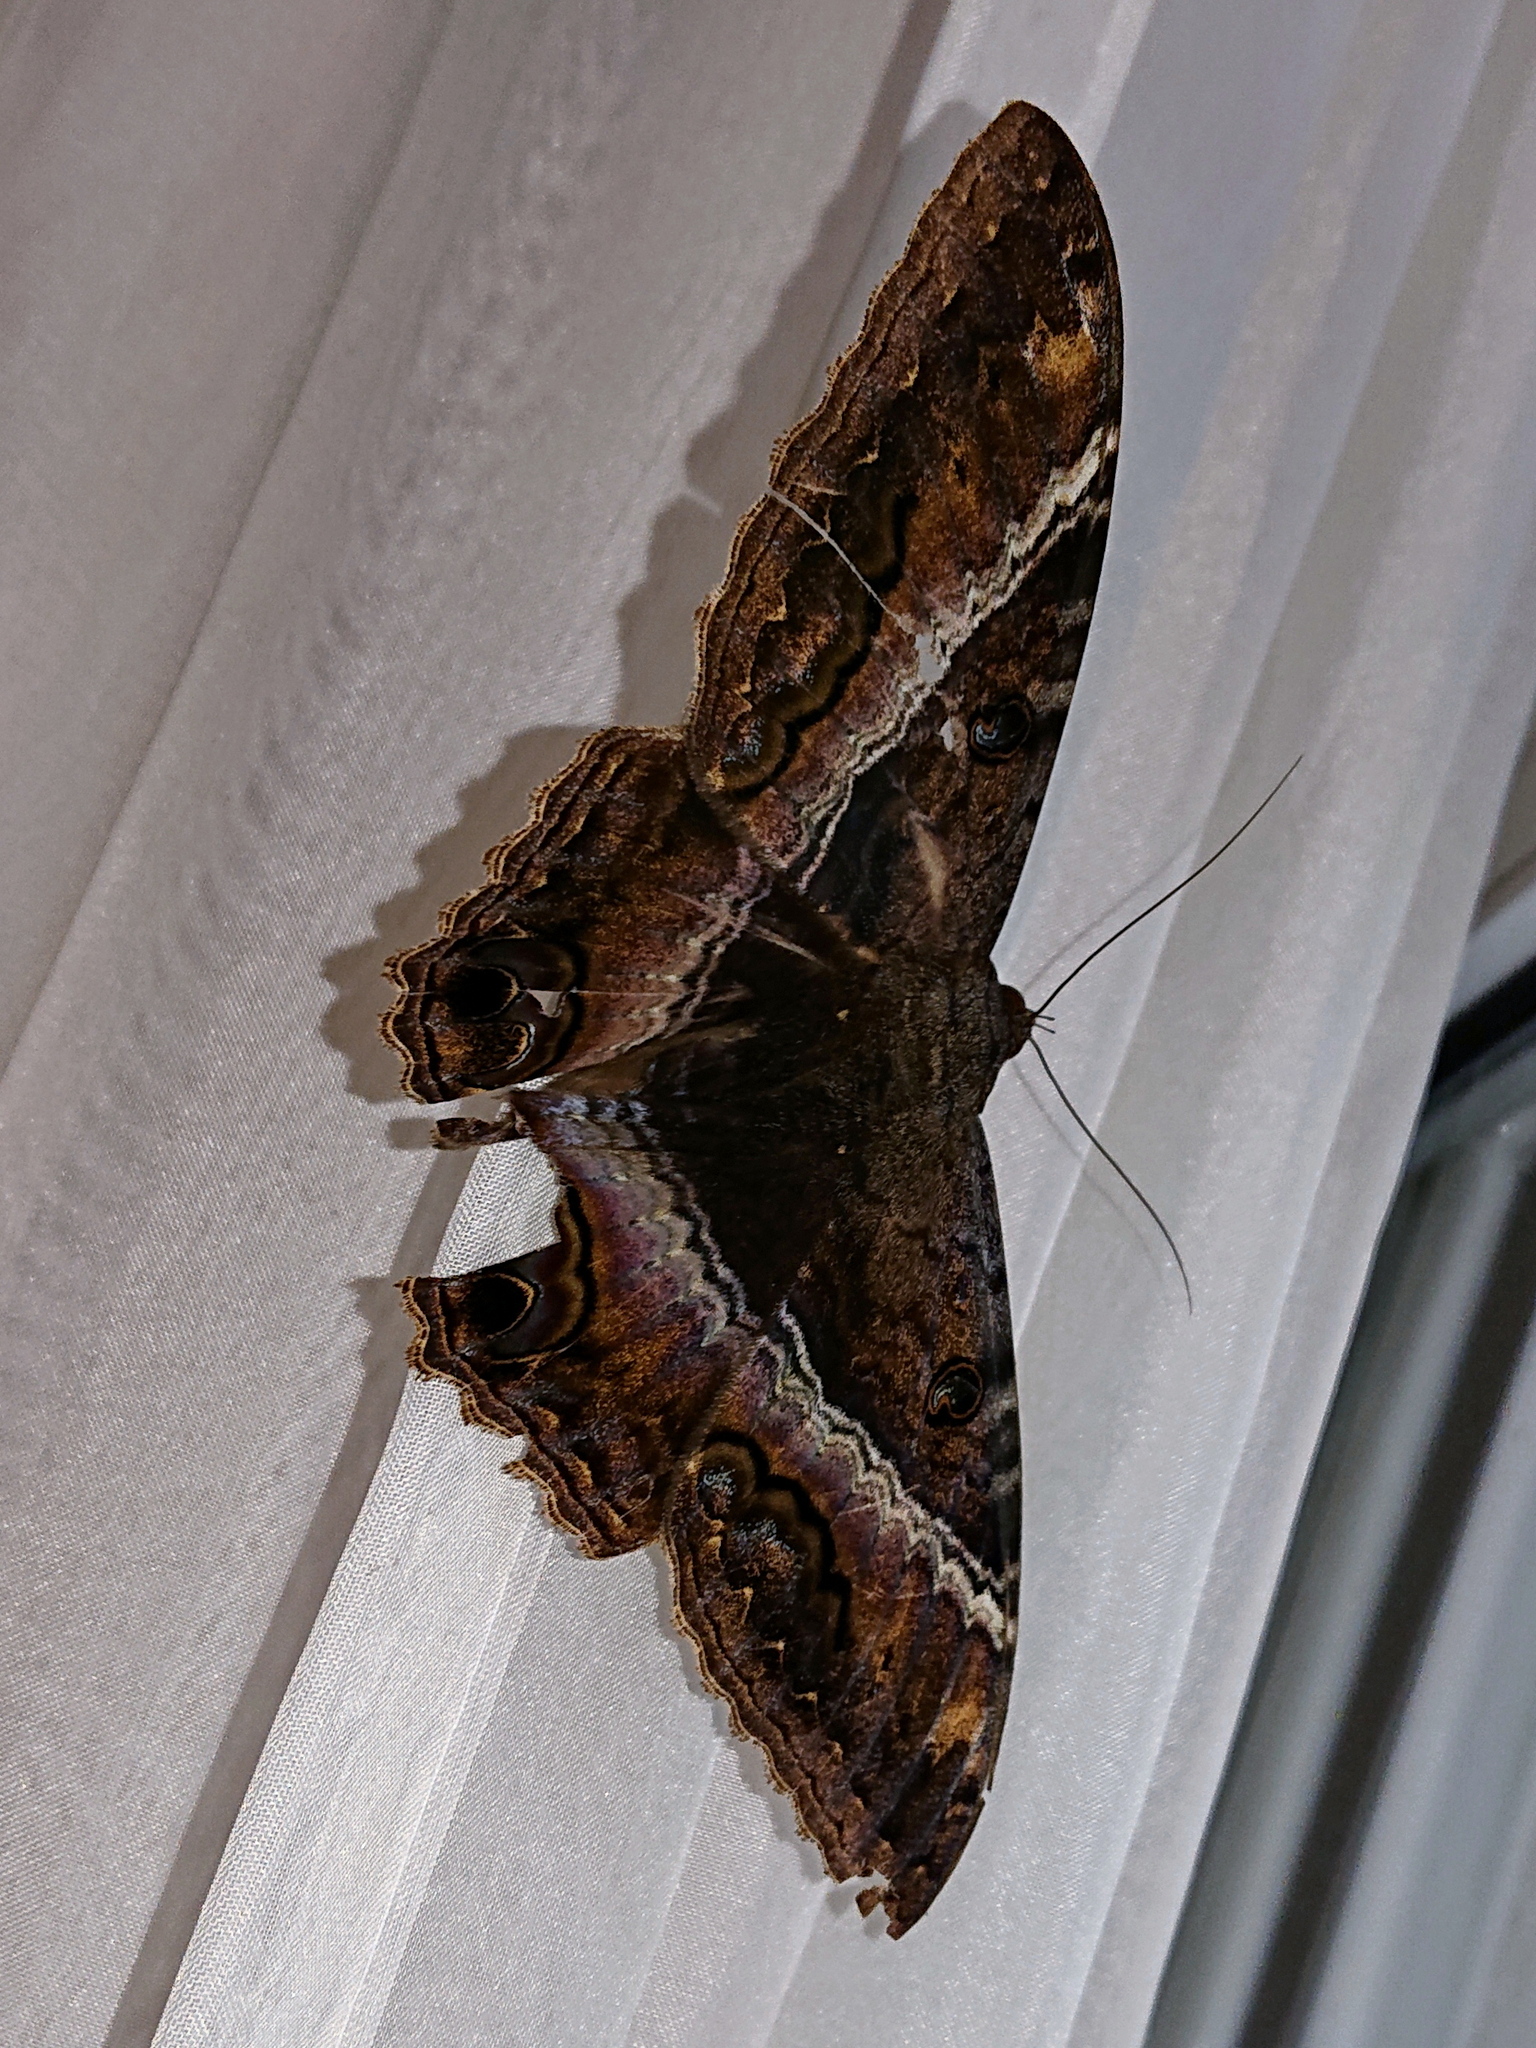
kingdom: Animalia
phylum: Arthropoda
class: Insecta
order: Lepidoptera
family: Erebidae
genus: Ascalapha
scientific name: Ascalapha odorata
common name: Black witch
